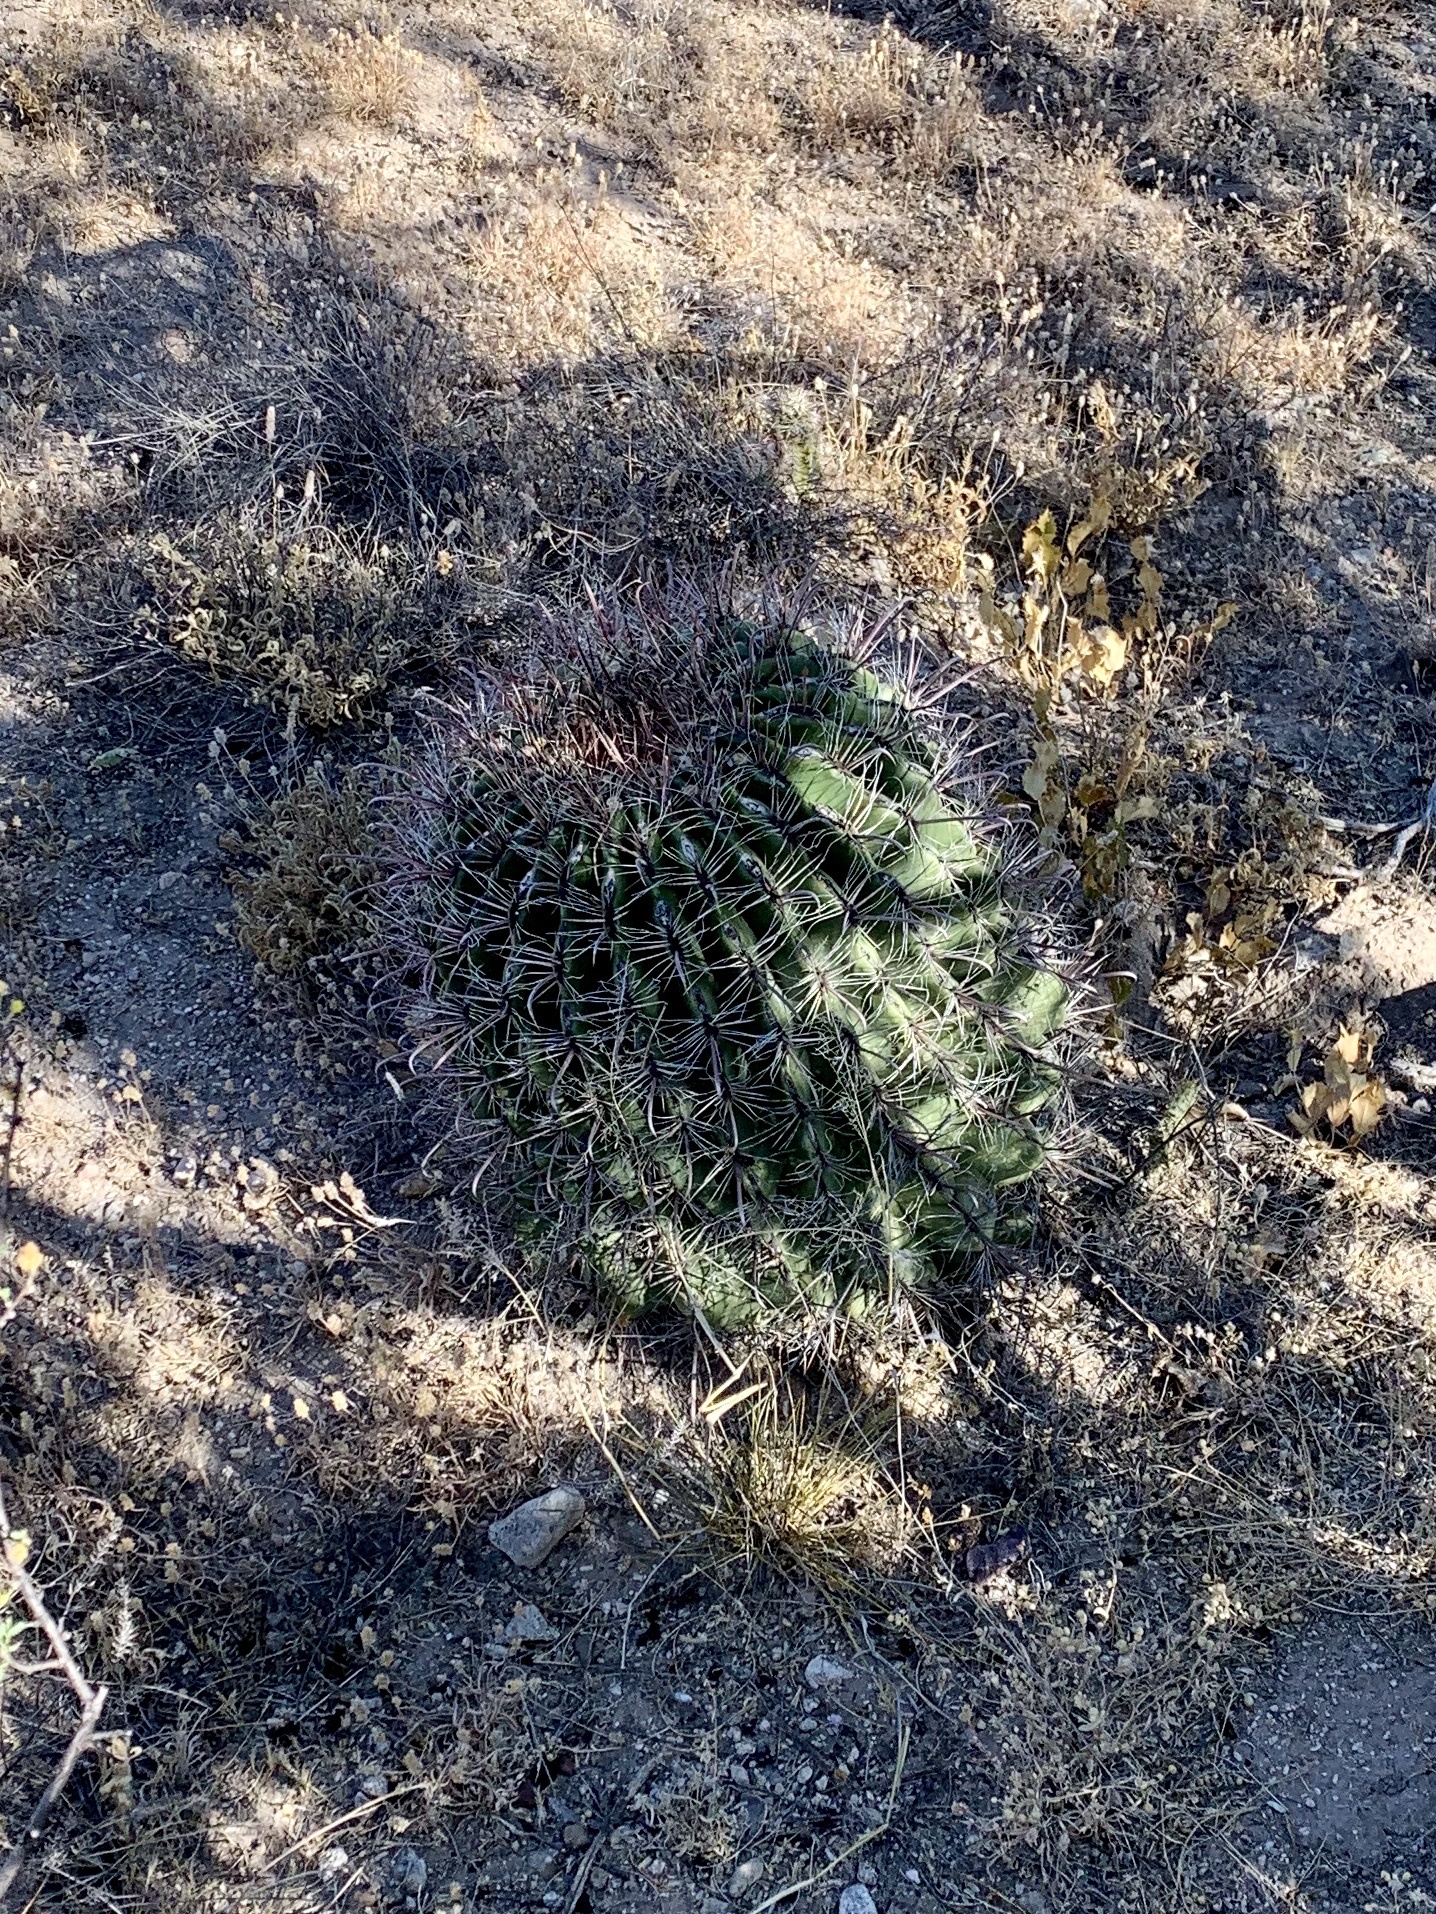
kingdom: Plantae
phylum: Tracheophyta
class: Magnoliopsida
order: Caryophyllales
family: Cactaceae
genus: Ferocactus
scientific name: Ferocactus wislizeni
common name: Candy barrel cactus
